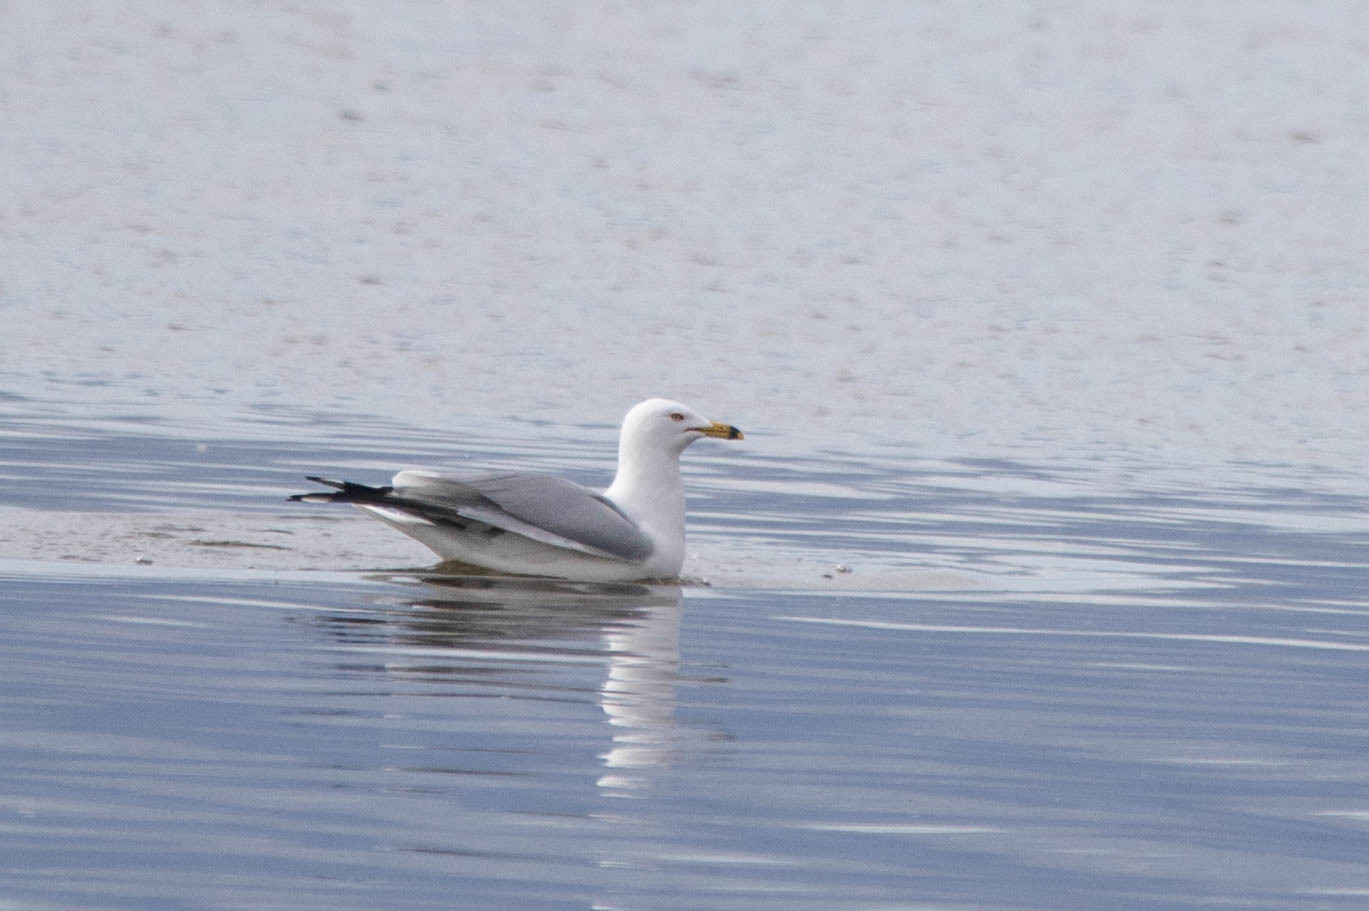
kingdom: Animalia
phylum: Chordata
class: Aves
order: Charadriiformes
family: Laridae
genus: Larus
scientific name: Larus delawarensis
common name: Ring-billed gull
